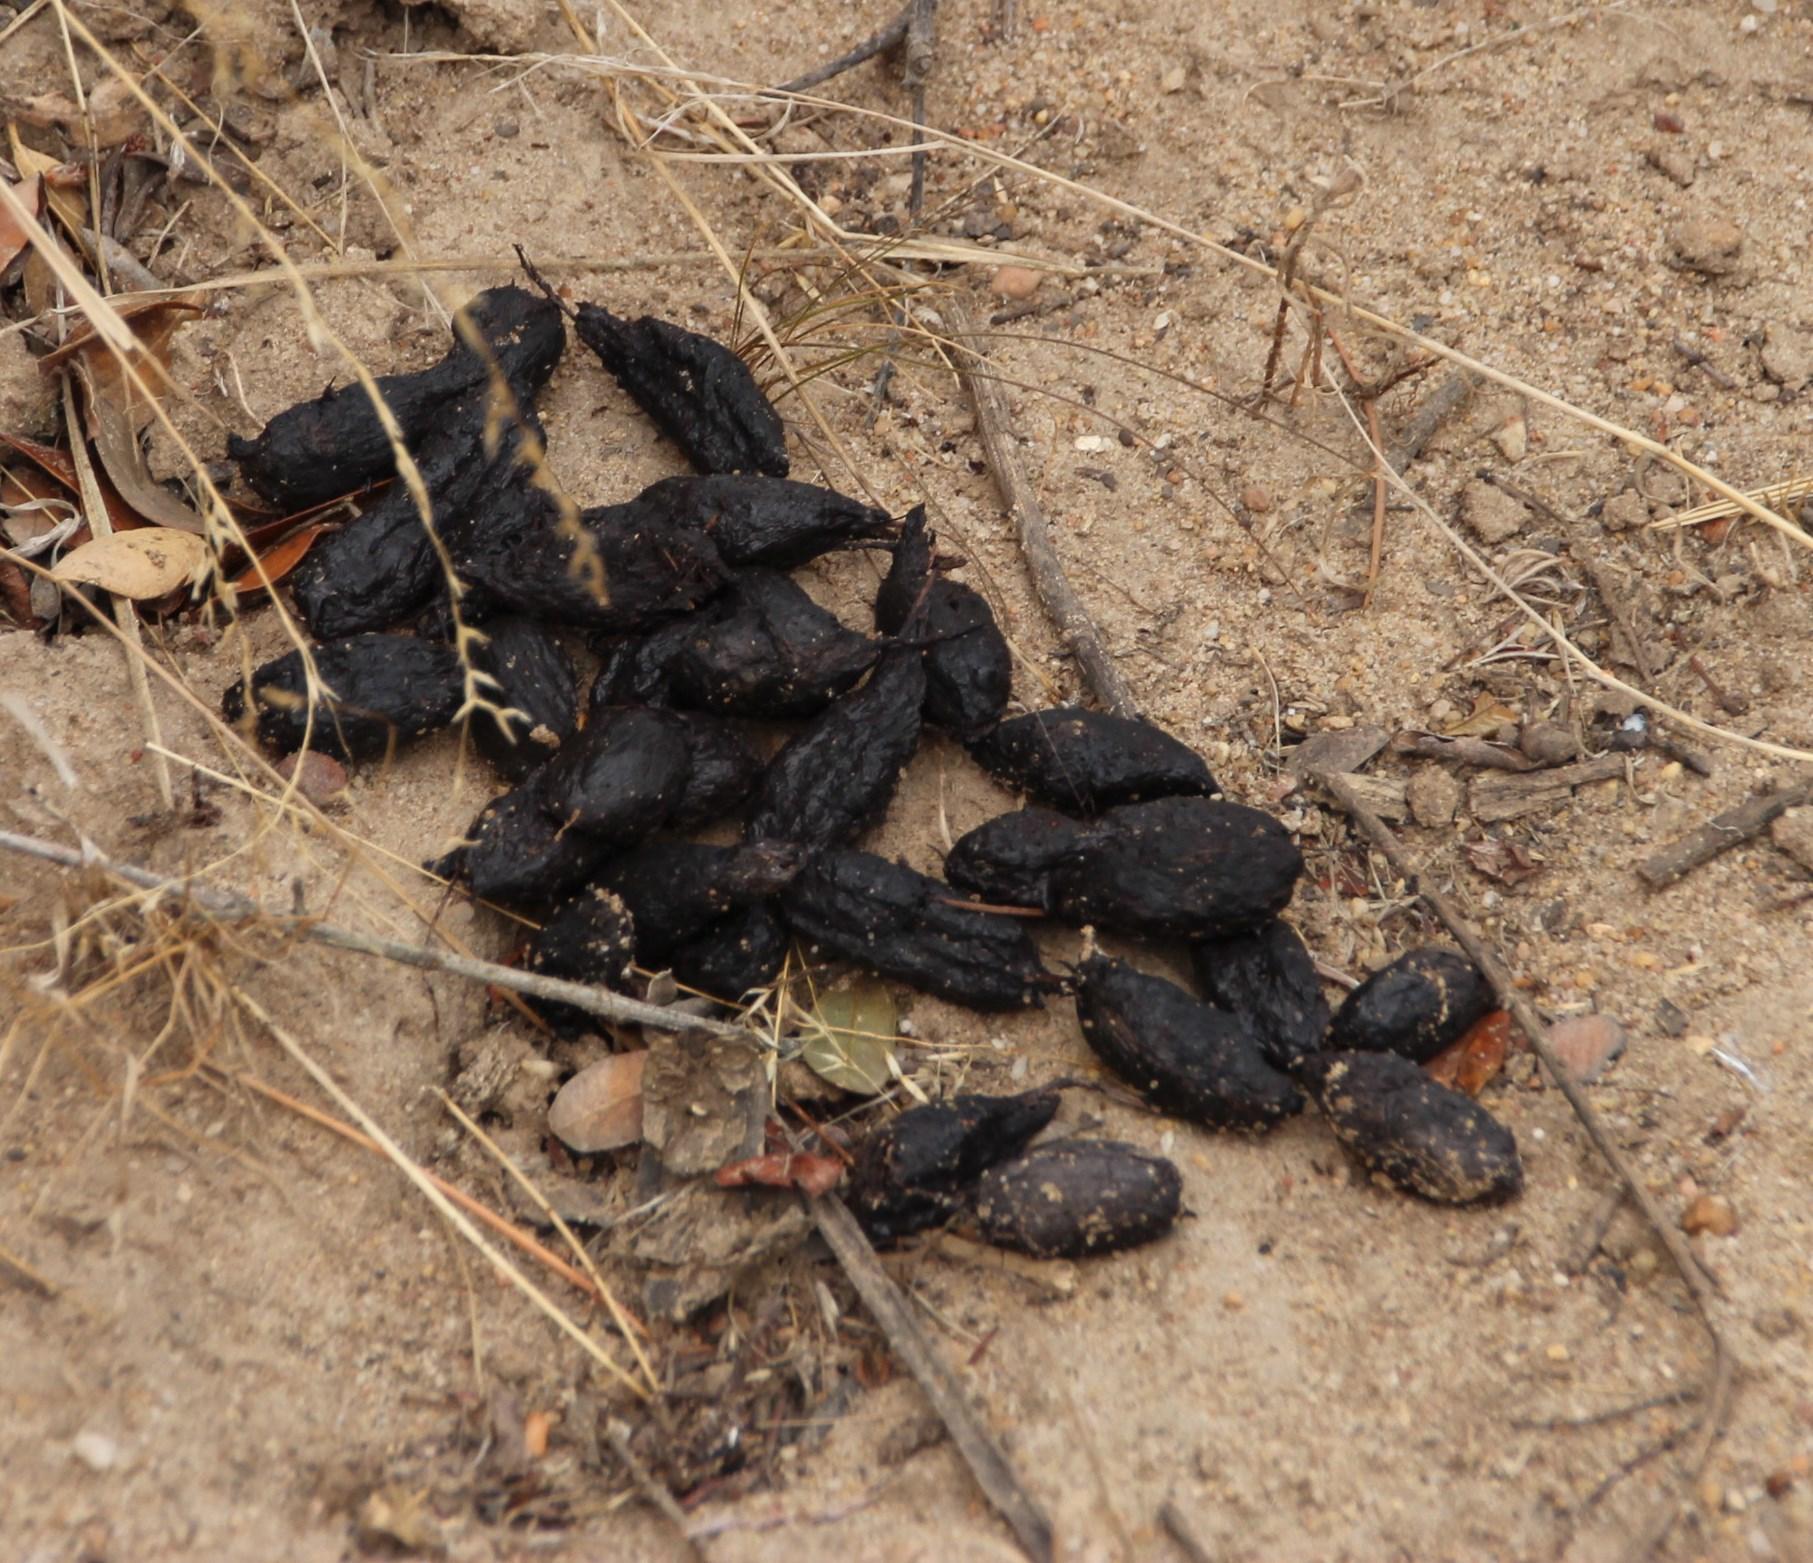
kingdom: Animalia
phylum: Chordata
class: Mammalia
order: Rodentia
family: Hystricidae
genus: Hystrix
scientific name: Hystrix africaeaustralis
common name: Cape porcupine
